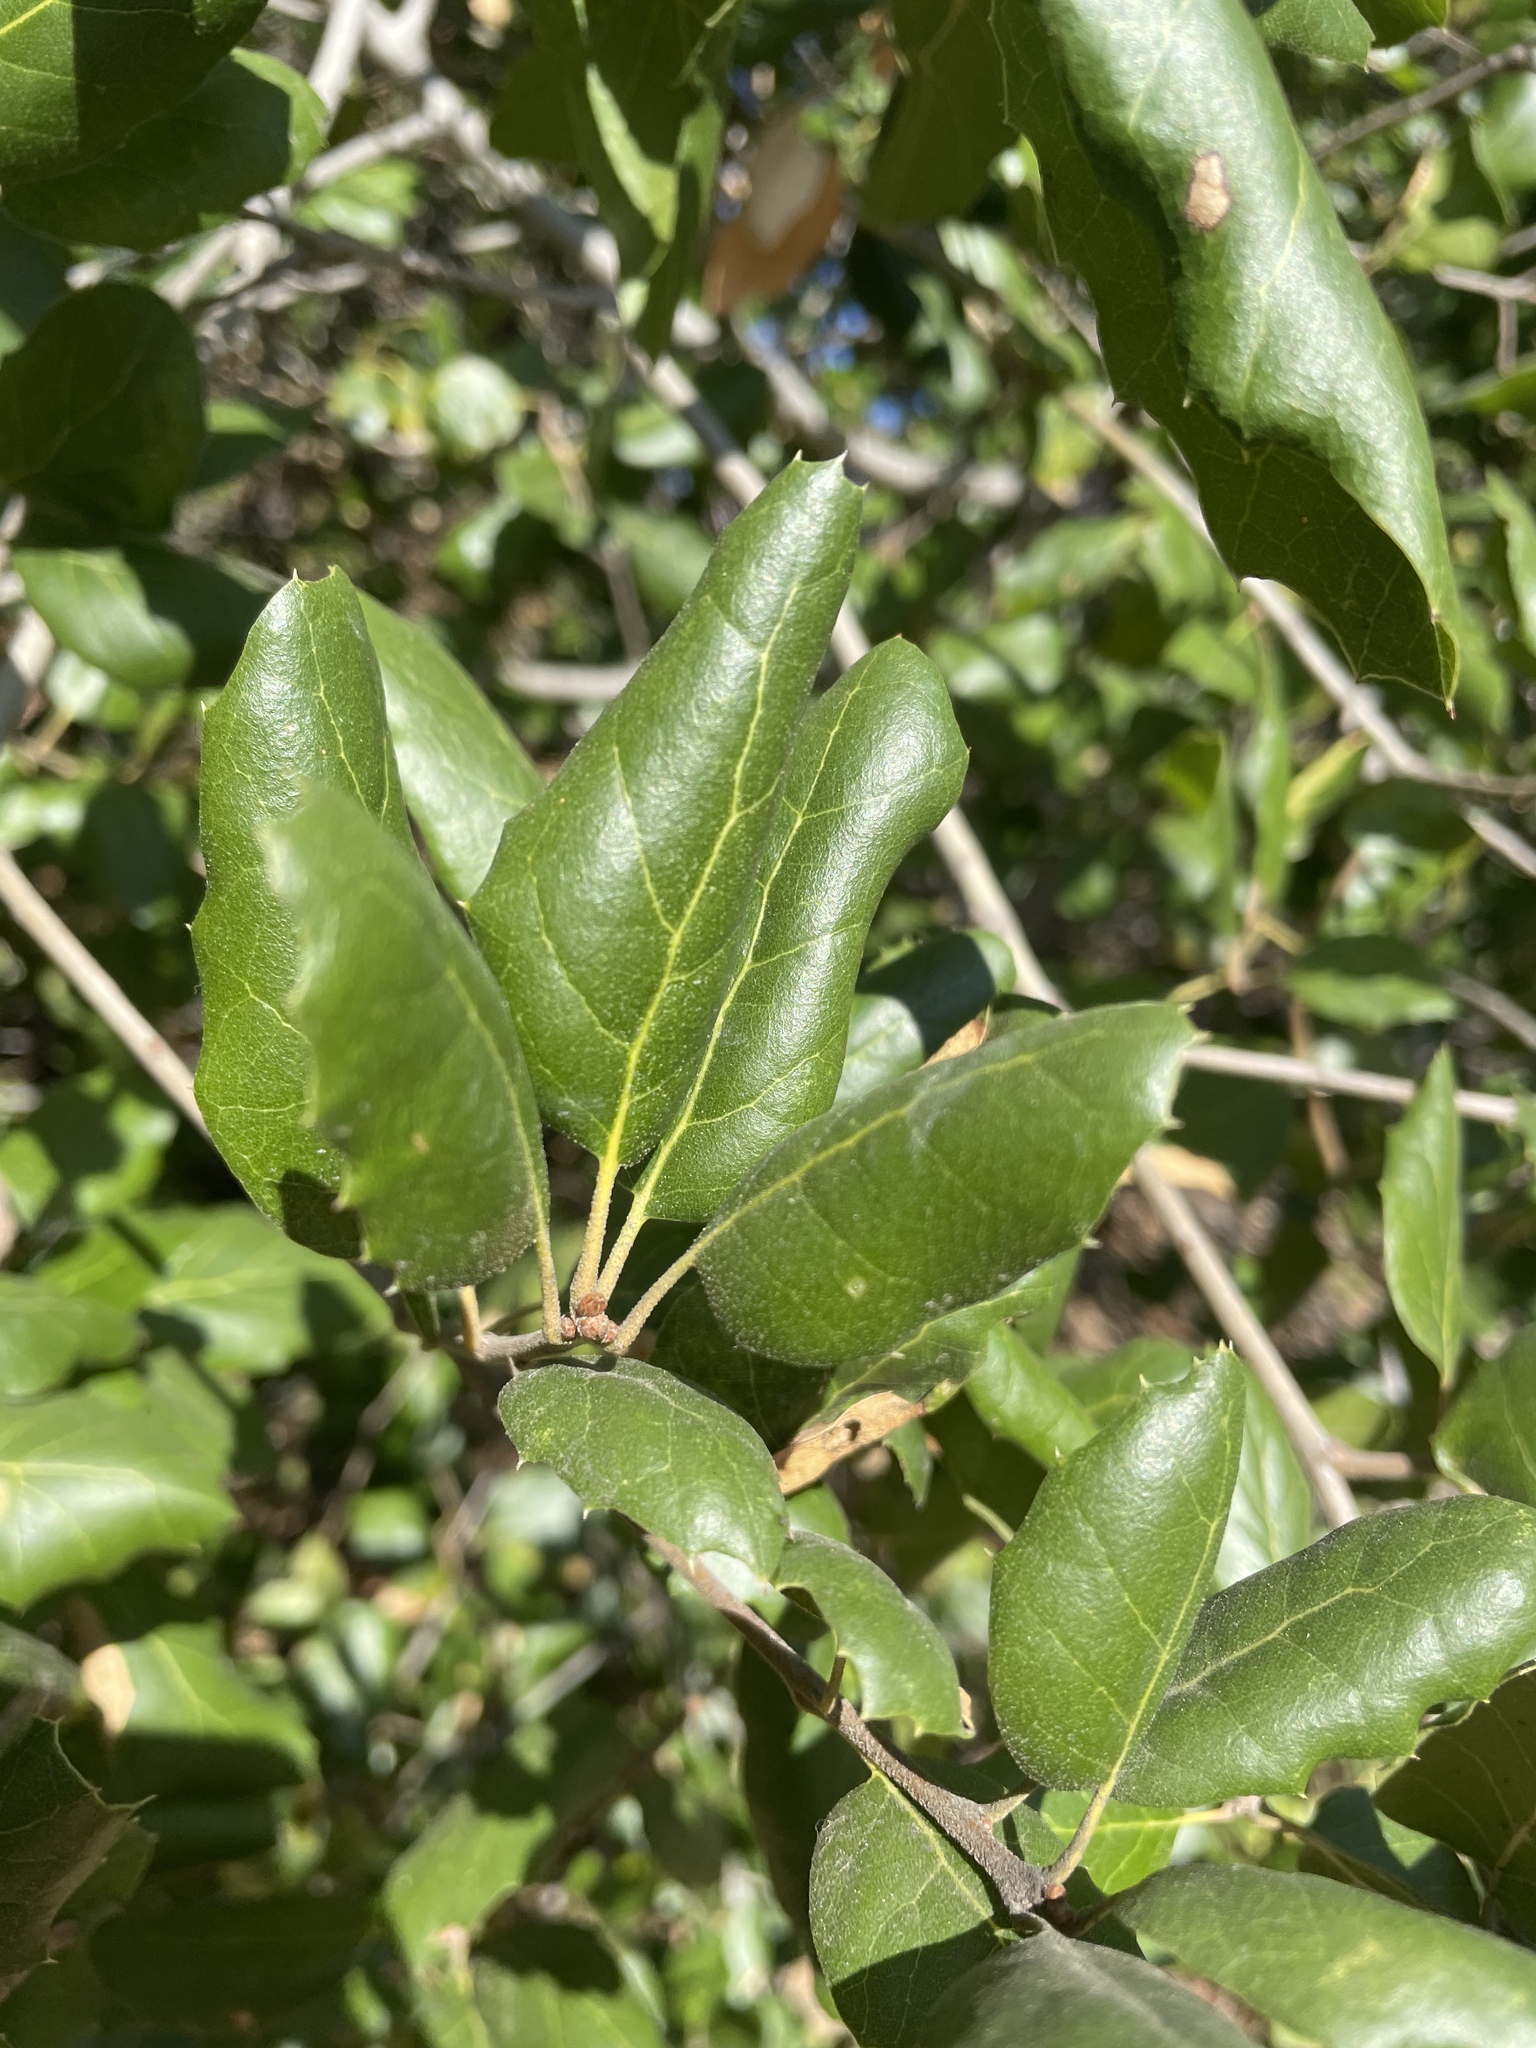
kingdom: Plantae
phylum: Tracheophyta
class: Magnoliopsida
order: Fagales
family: Fagaceae
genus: Quercus
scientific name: Quercus agrifolia
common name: California live oak
